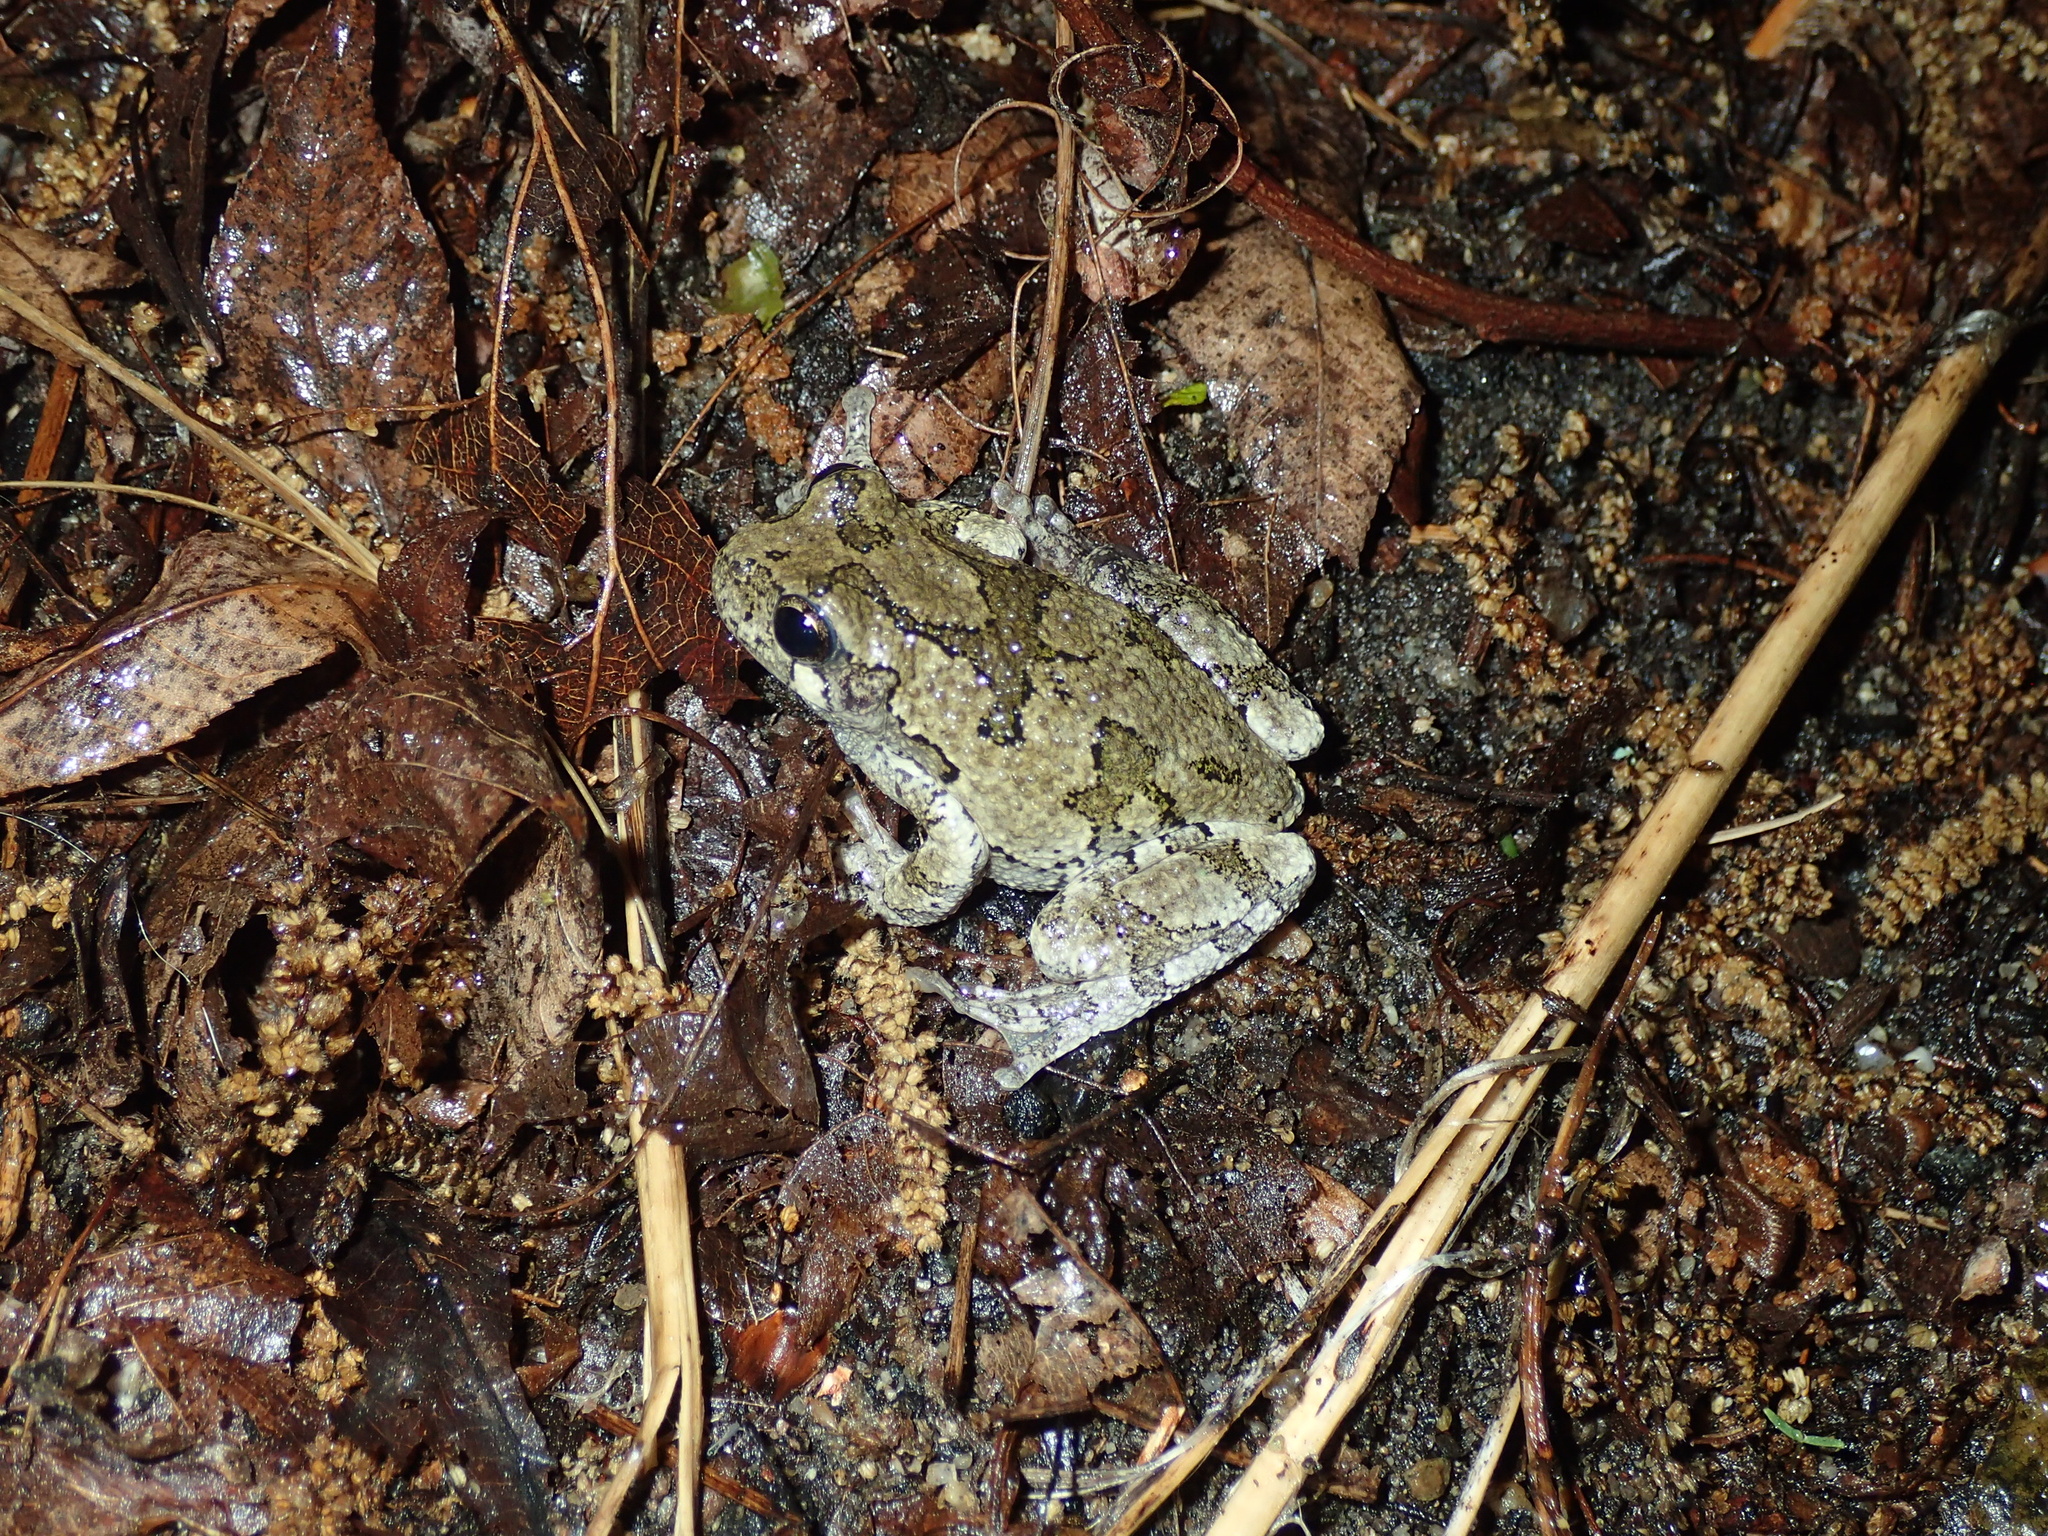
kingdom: Animalia
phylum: Chordata
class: Amphibia
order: Anura
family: Hylidae
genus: Dryophytes
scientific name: Dryophytes versicolor
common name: Gray treefrog
